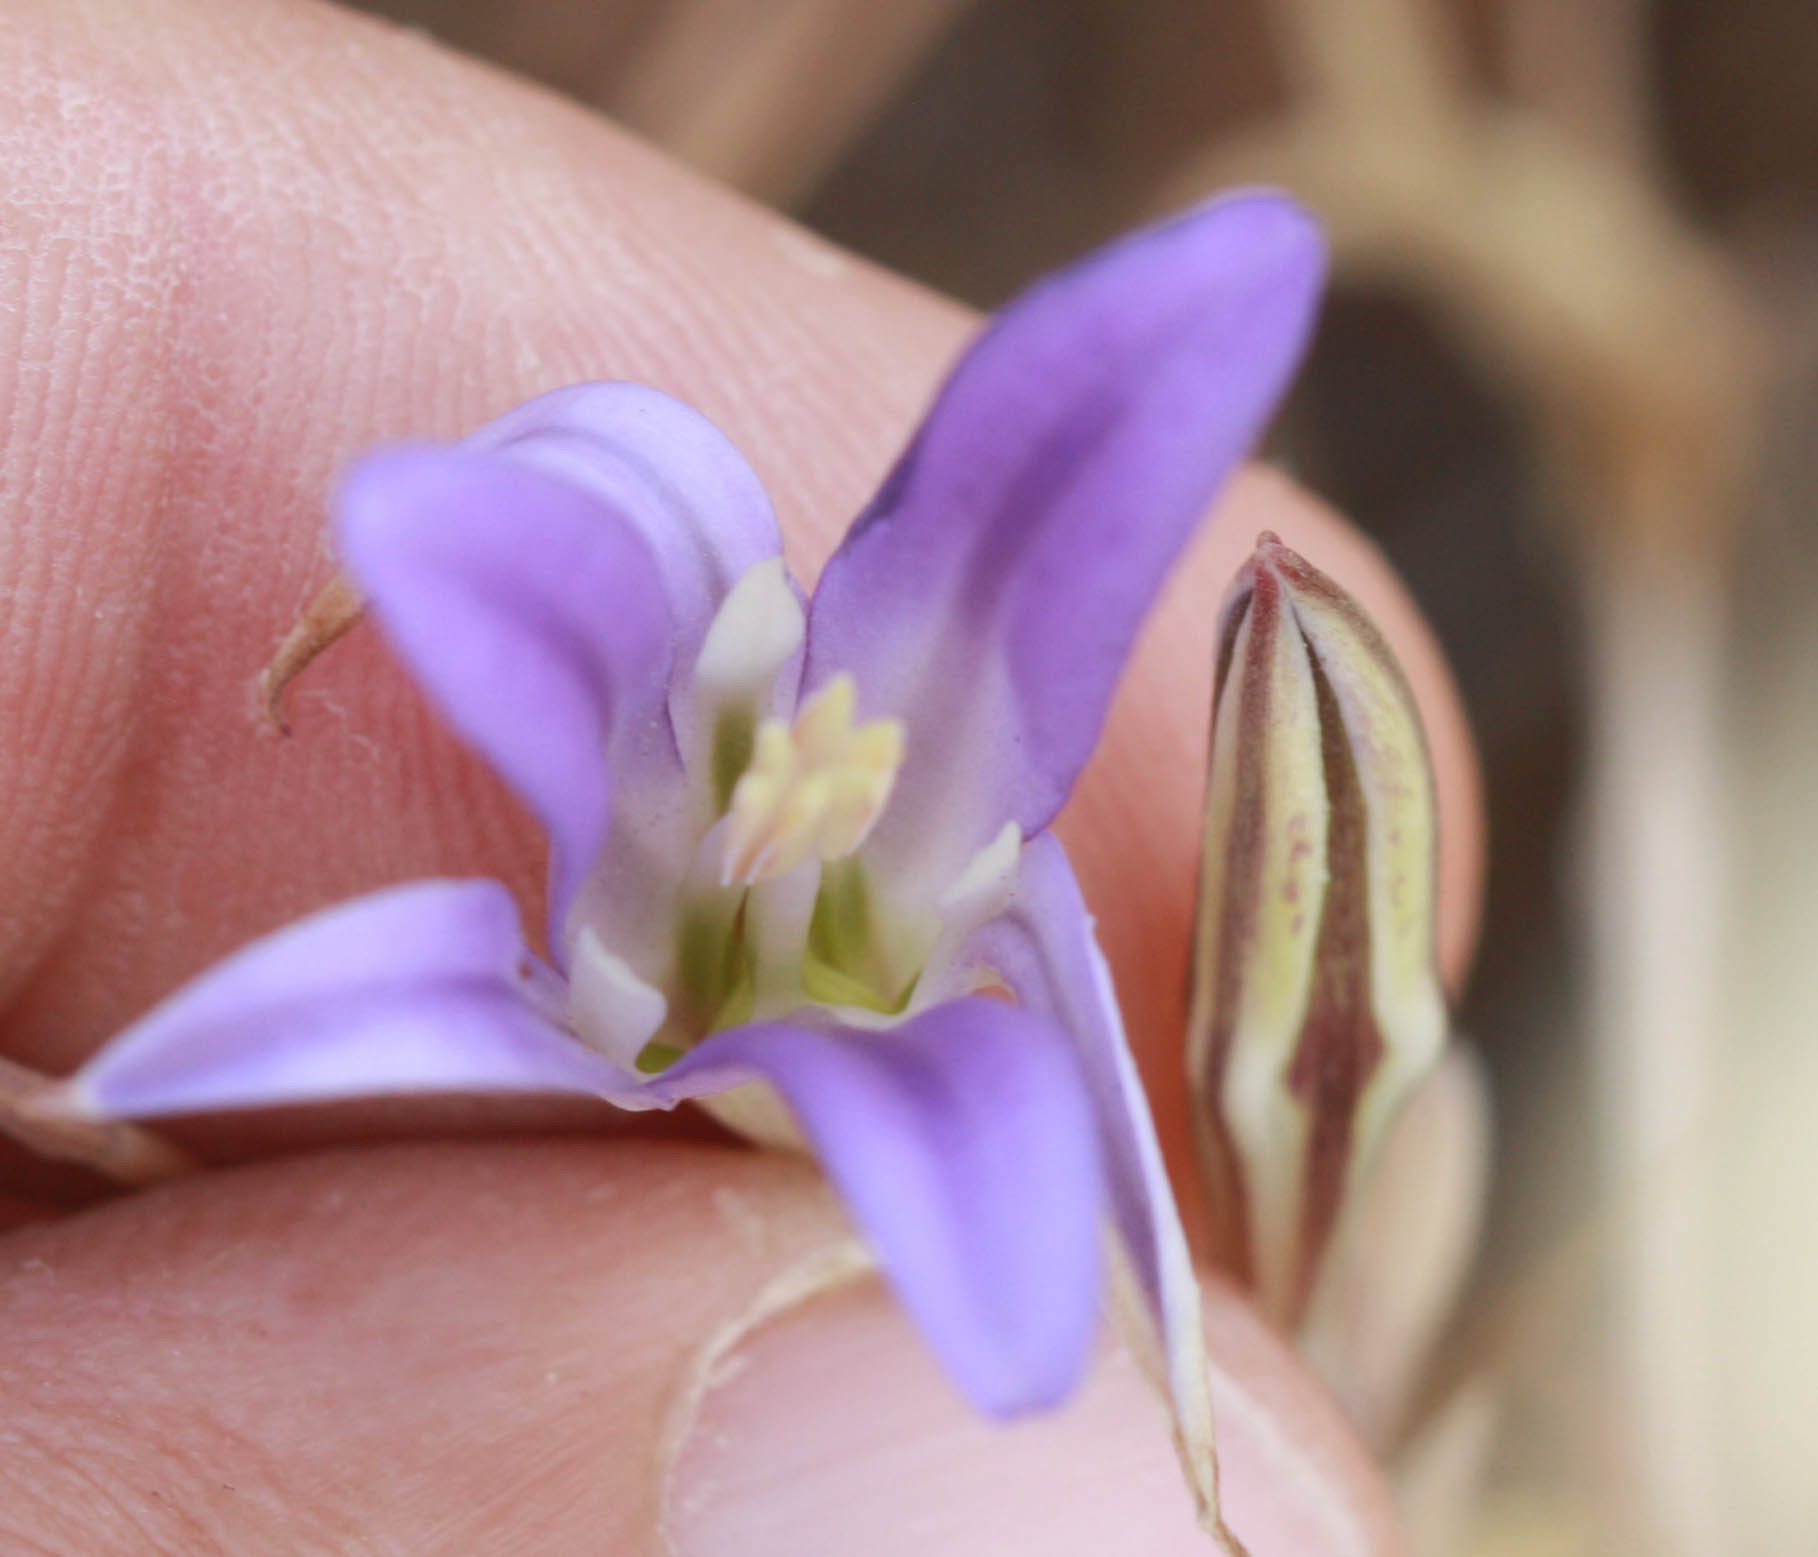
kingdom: Plantae
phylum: Tracheophyta
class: Liliopsida
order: Asparagales
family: Asparagaceae
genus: Brodiaea
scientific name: Brodiaea elegans
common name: Elegant cluster-lily
